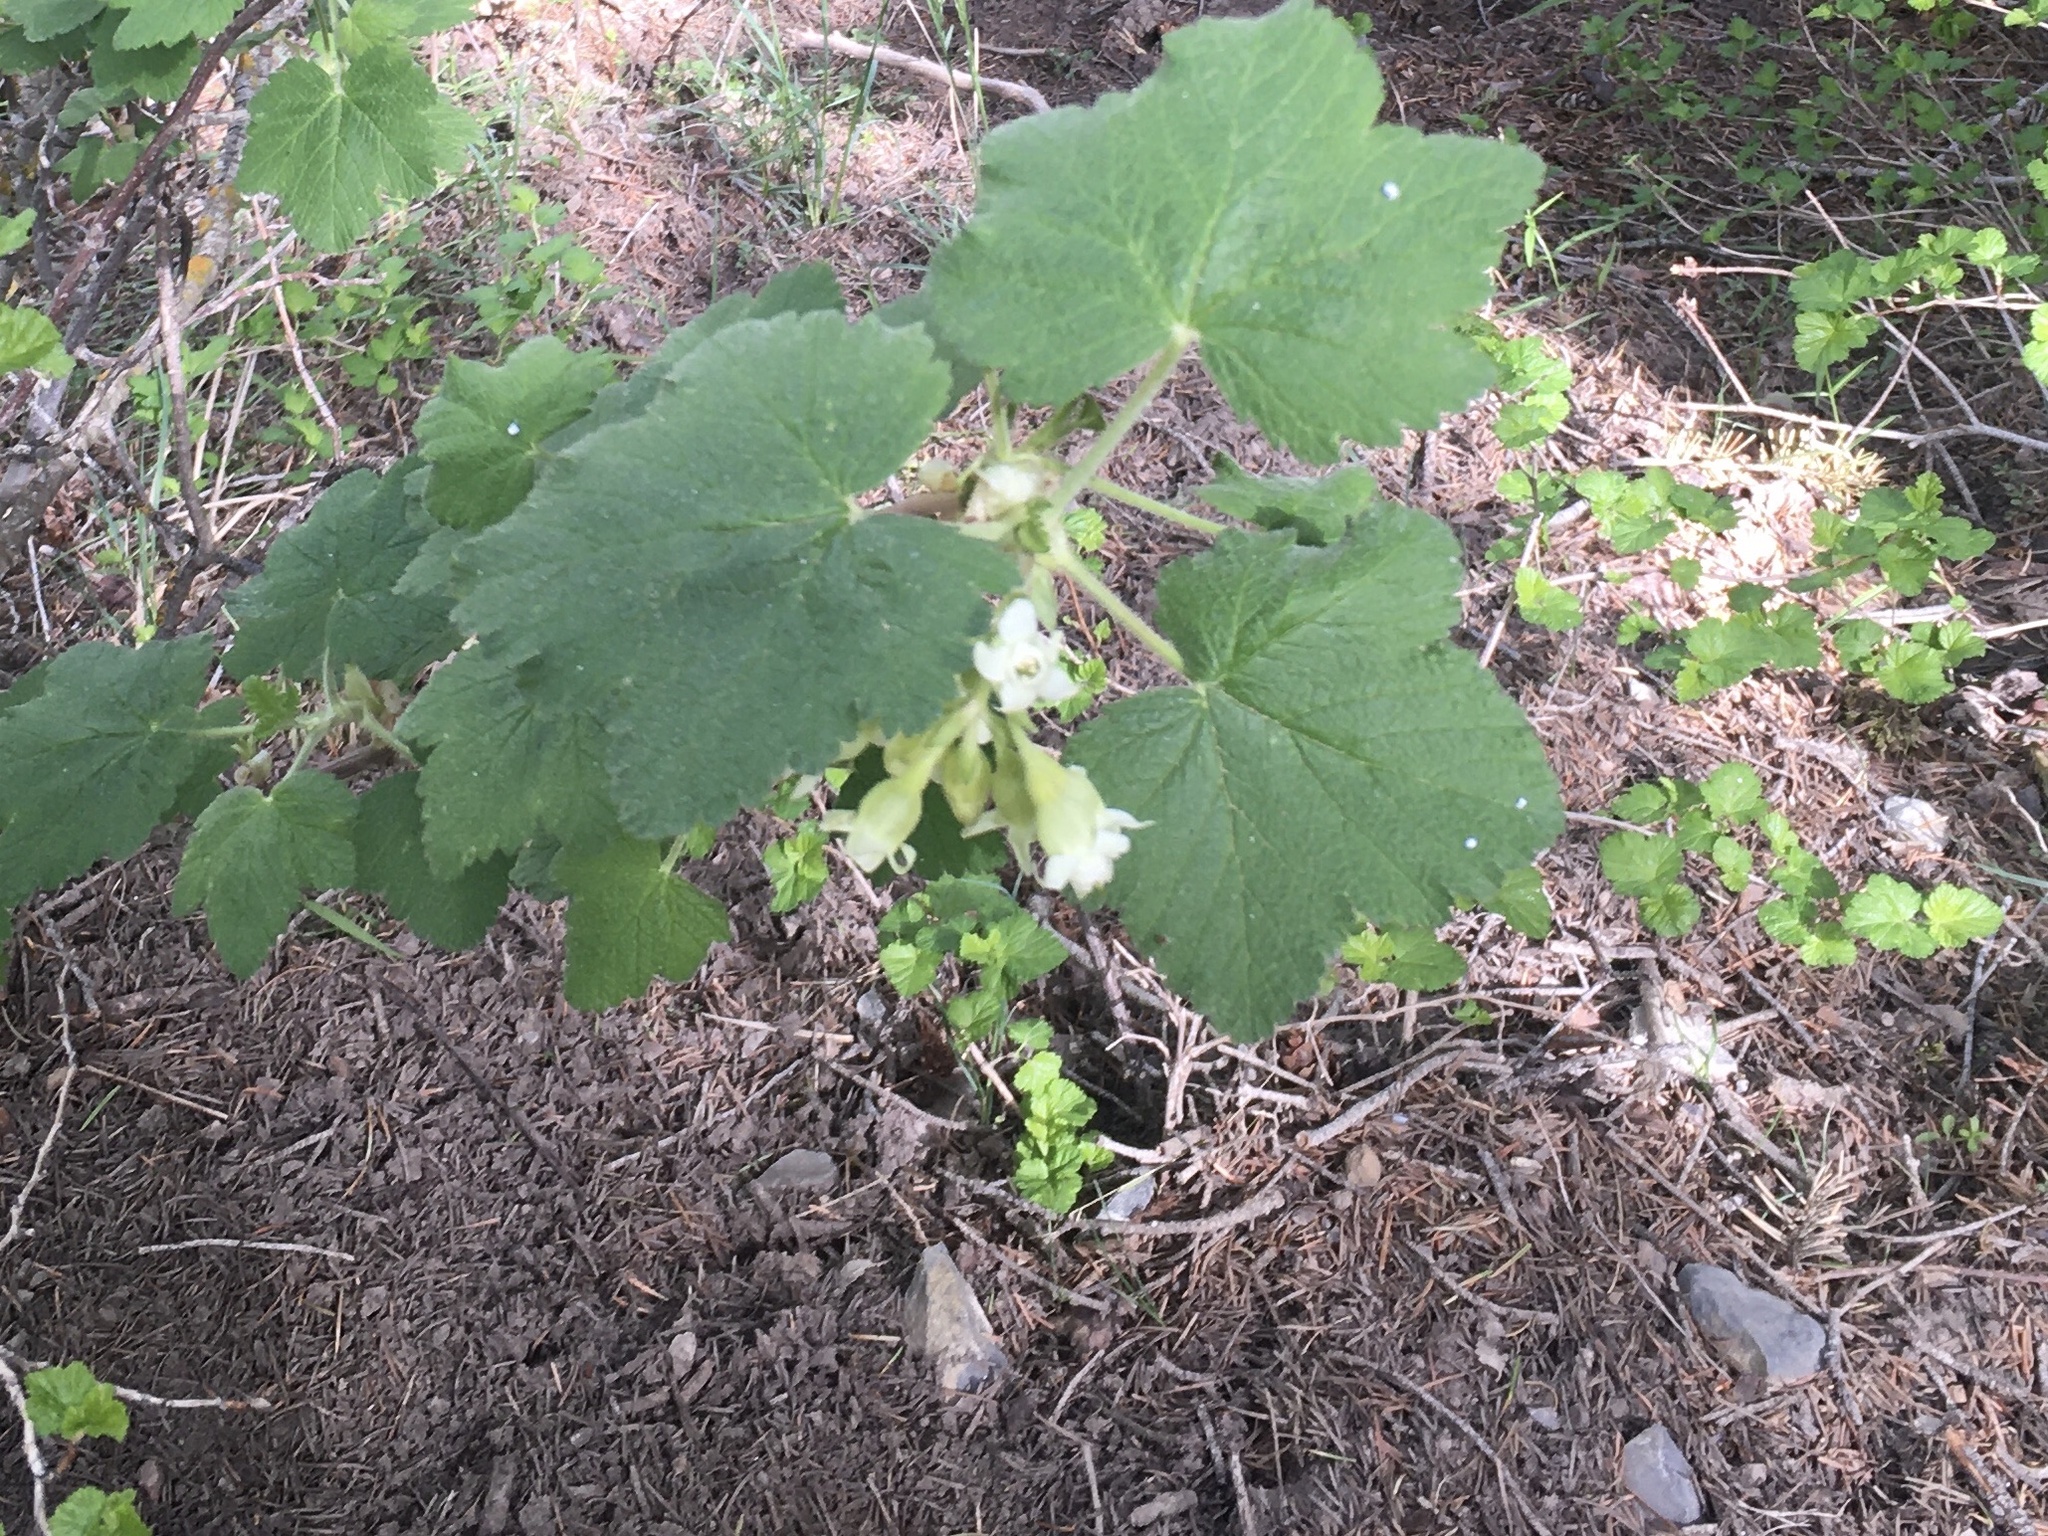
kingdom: Plantae
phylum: Tracheophyta
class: Magnoliopsida
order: Saxifragales
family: Grossulariaceae
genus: Ribes
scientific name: Ribes viscosissimum
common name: Sticky currant
